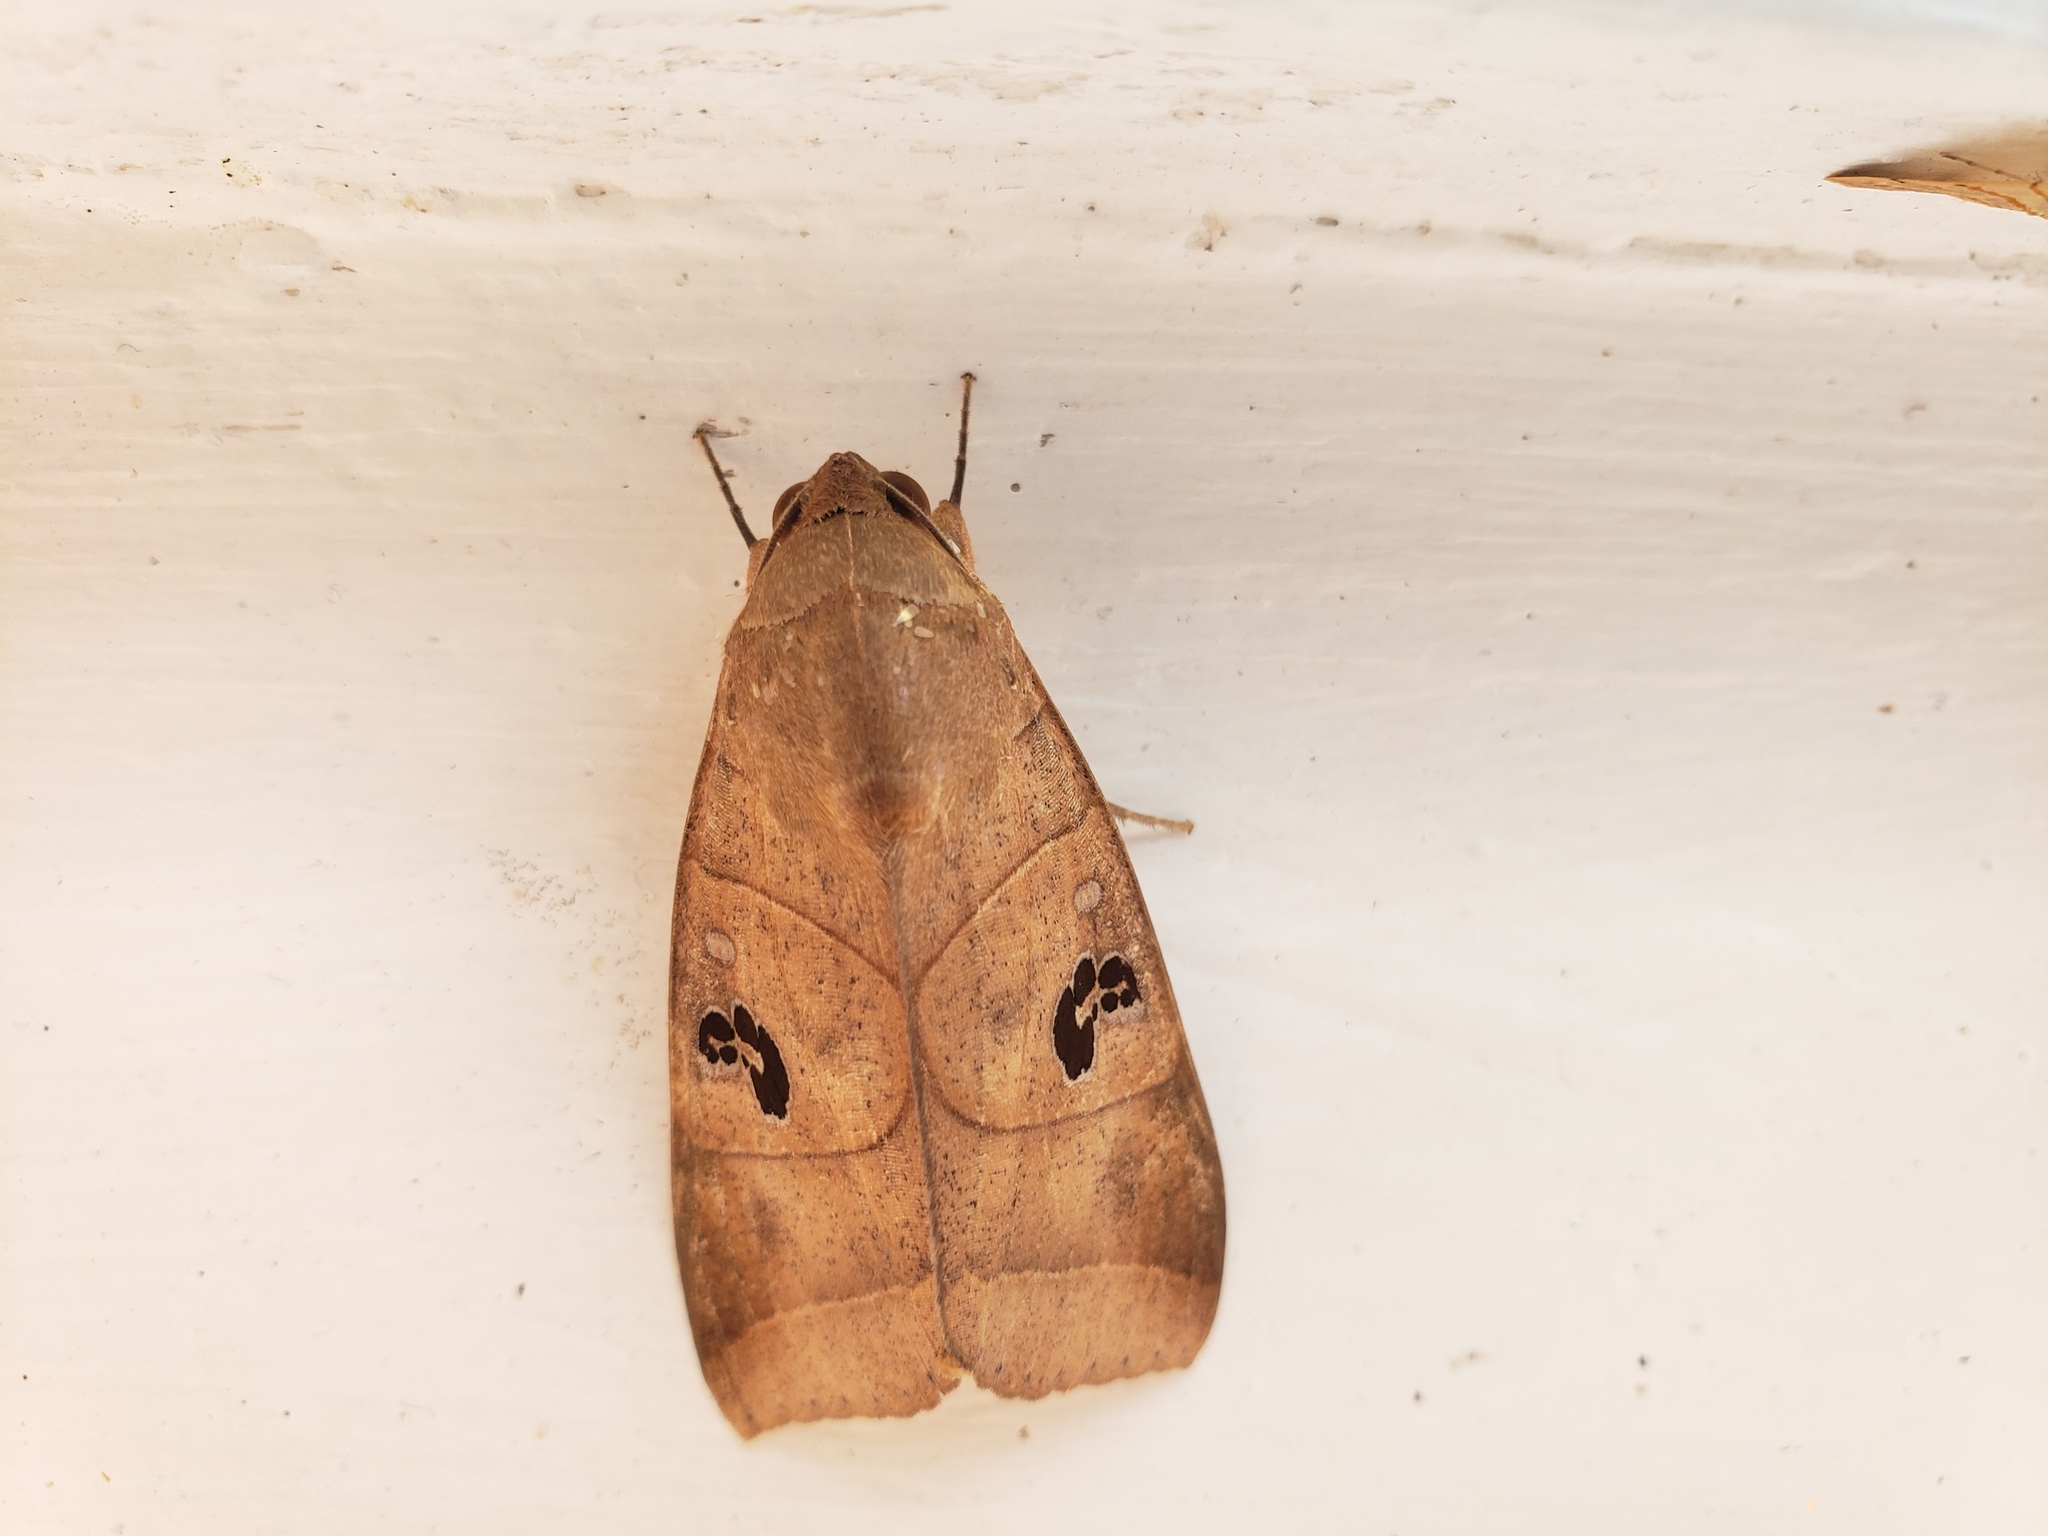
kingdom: Animalia
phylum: Arthropoda
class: Insecta
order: Lepidoptera
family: Erebidae
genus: Thyas
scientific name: Thyas coronata
